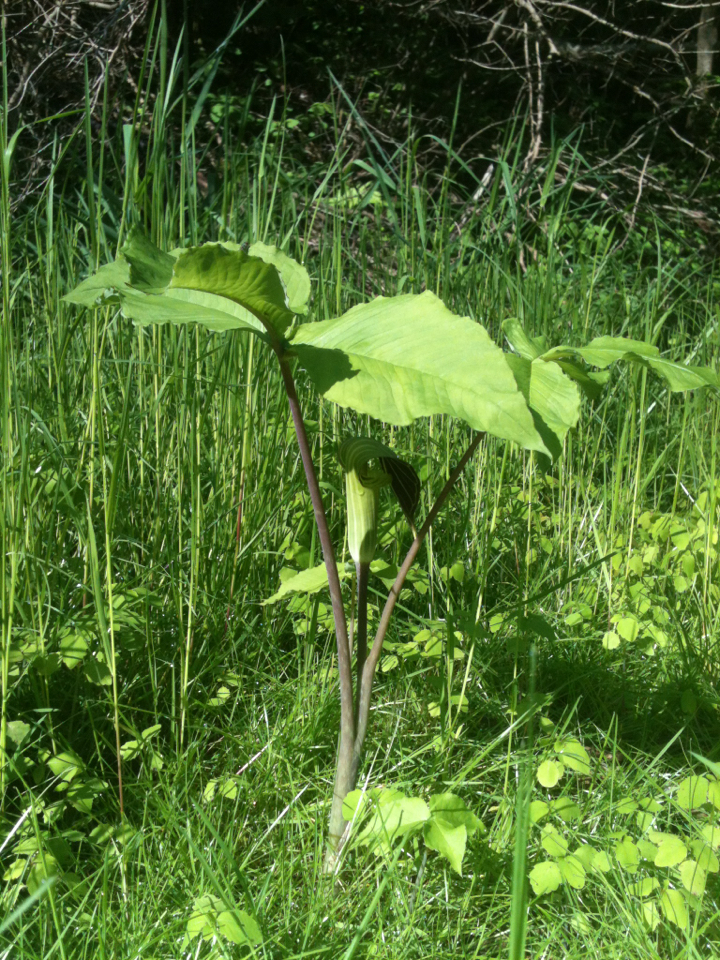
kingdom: Plantae
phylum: Tracheophyta
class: Liliopsida
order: Alismatales
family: Araceae
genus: Arisaema
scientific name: Arisaema triphyllum
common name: Jack-in-the-pulpit
